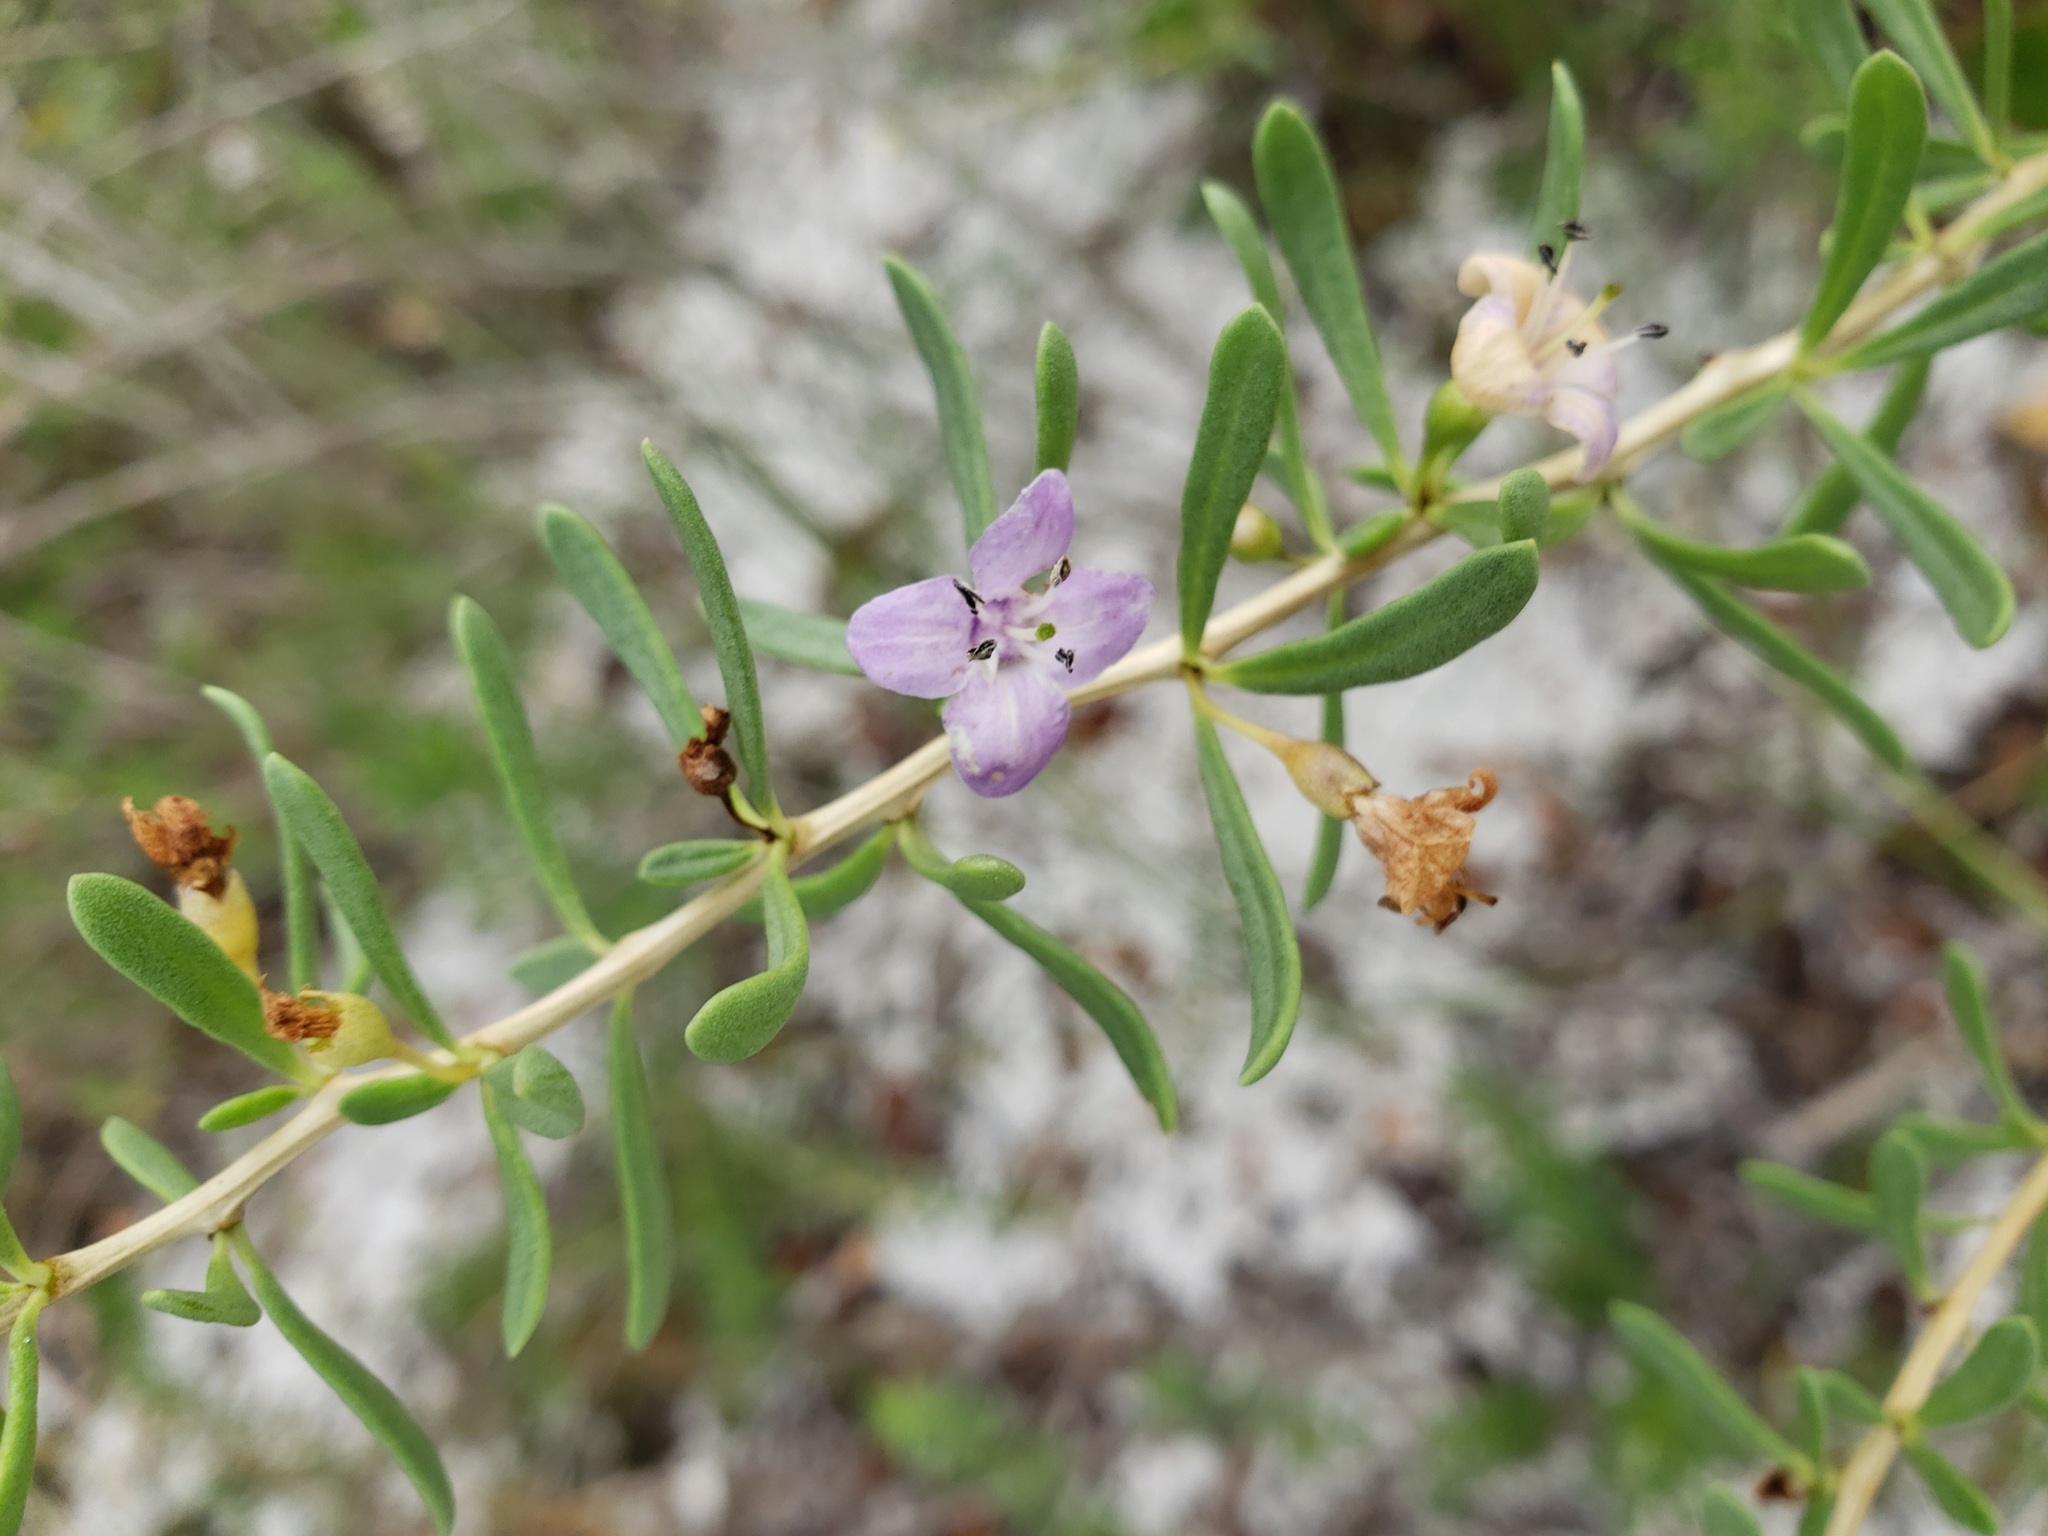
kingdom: Plantae
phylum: Tracheophyta
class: Magnoliopsida
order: Solanales
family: Solanaceae
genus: Lycium
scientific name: Lycium carolinianum
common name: Christmasberry
